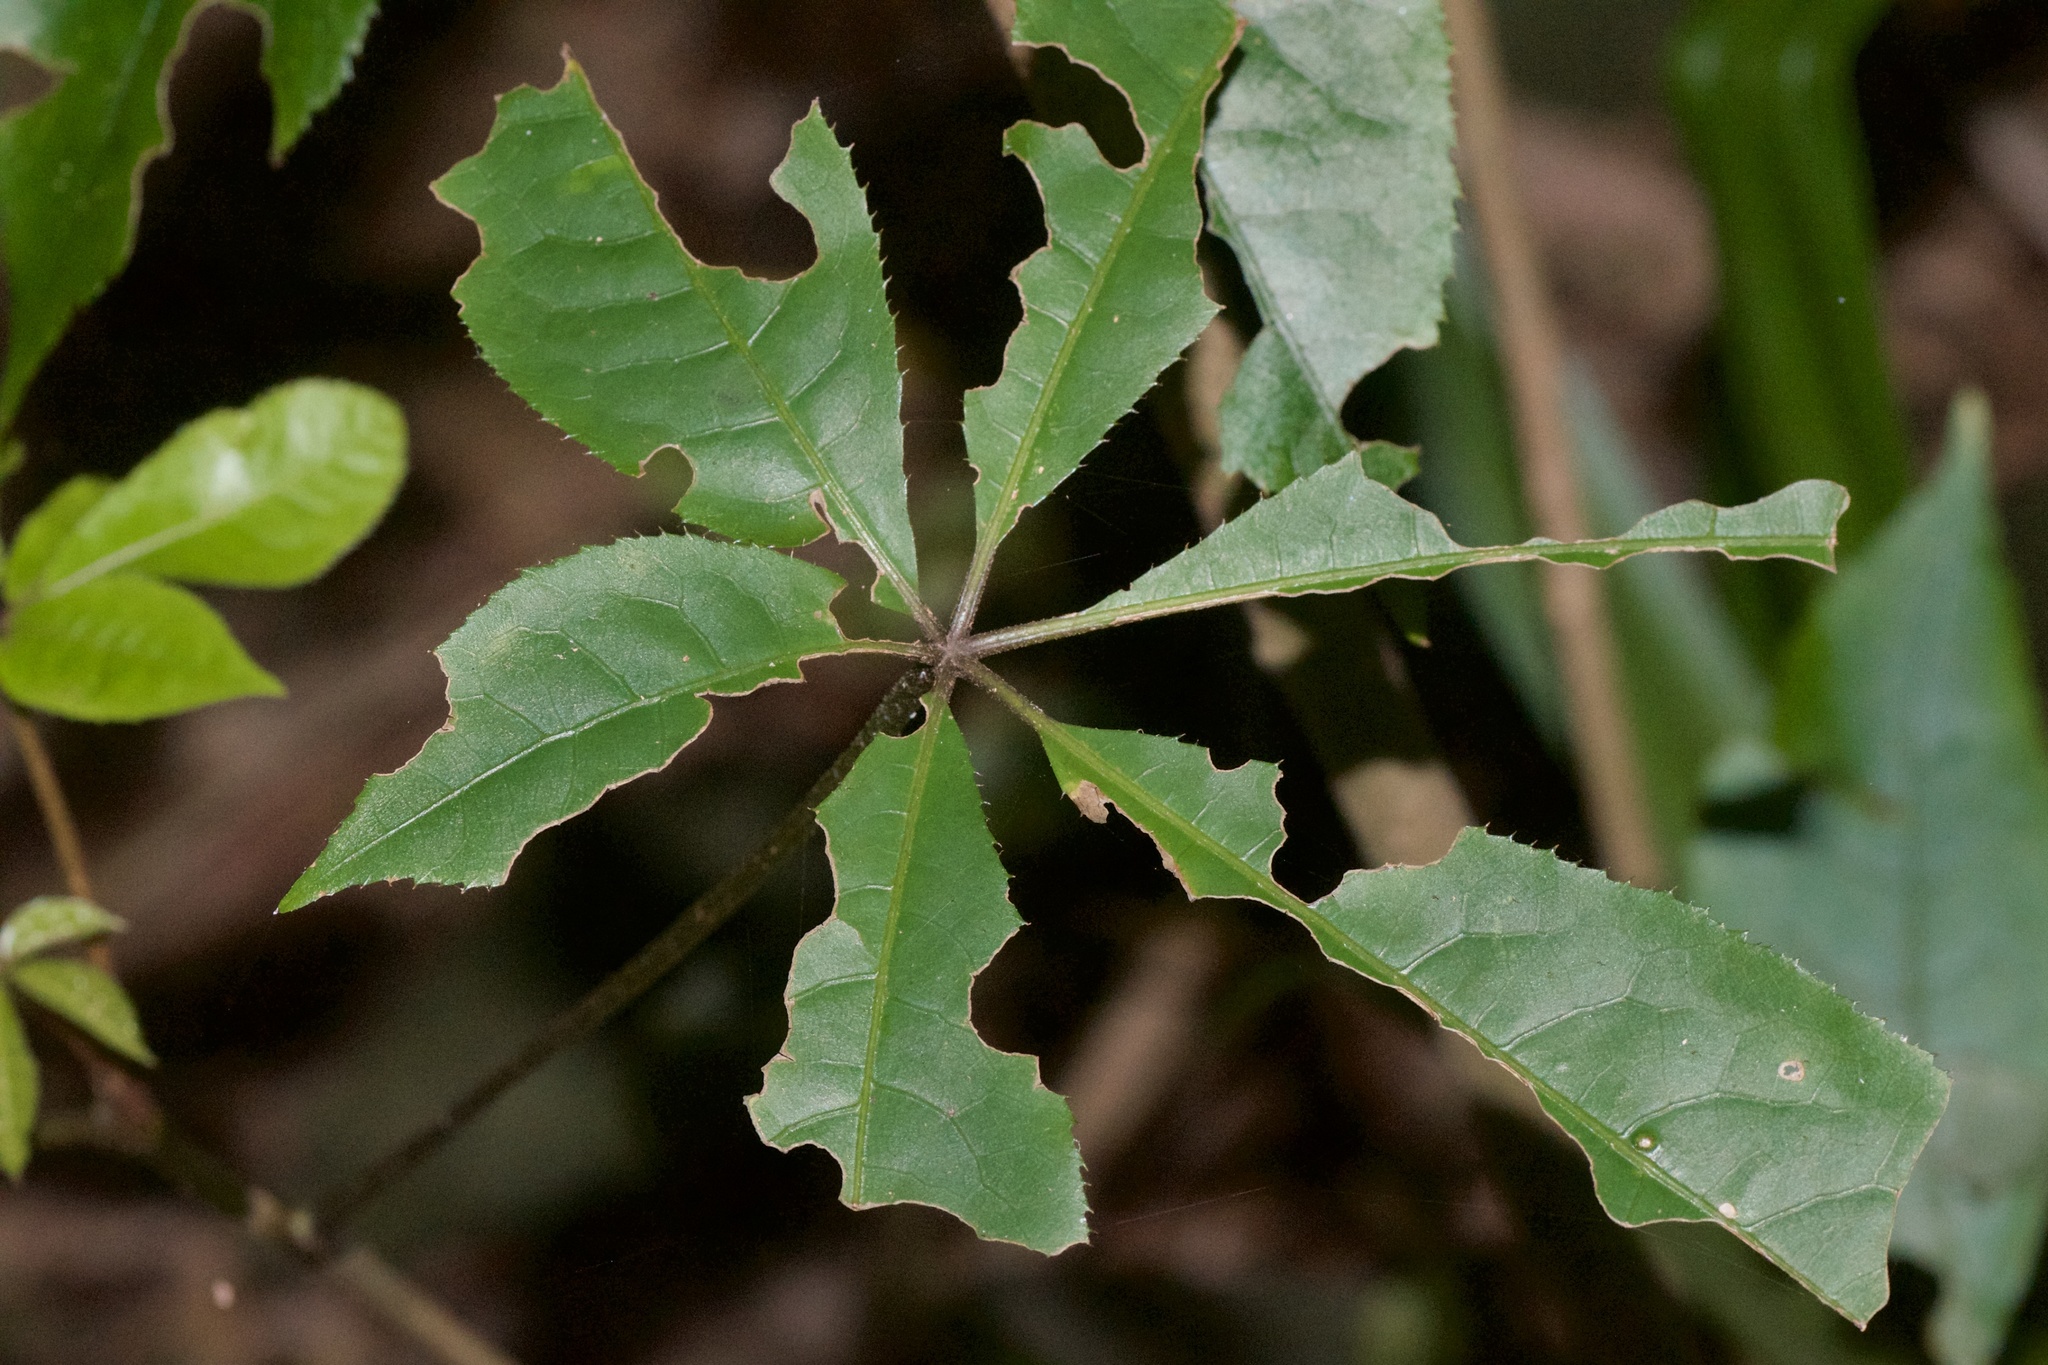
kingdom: Plantae
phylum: Tracheophyta
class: Magnoliopsida
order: Apiales
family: Araliaceae
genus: Schefflera
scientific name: Schefflera digitata
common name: Pate
